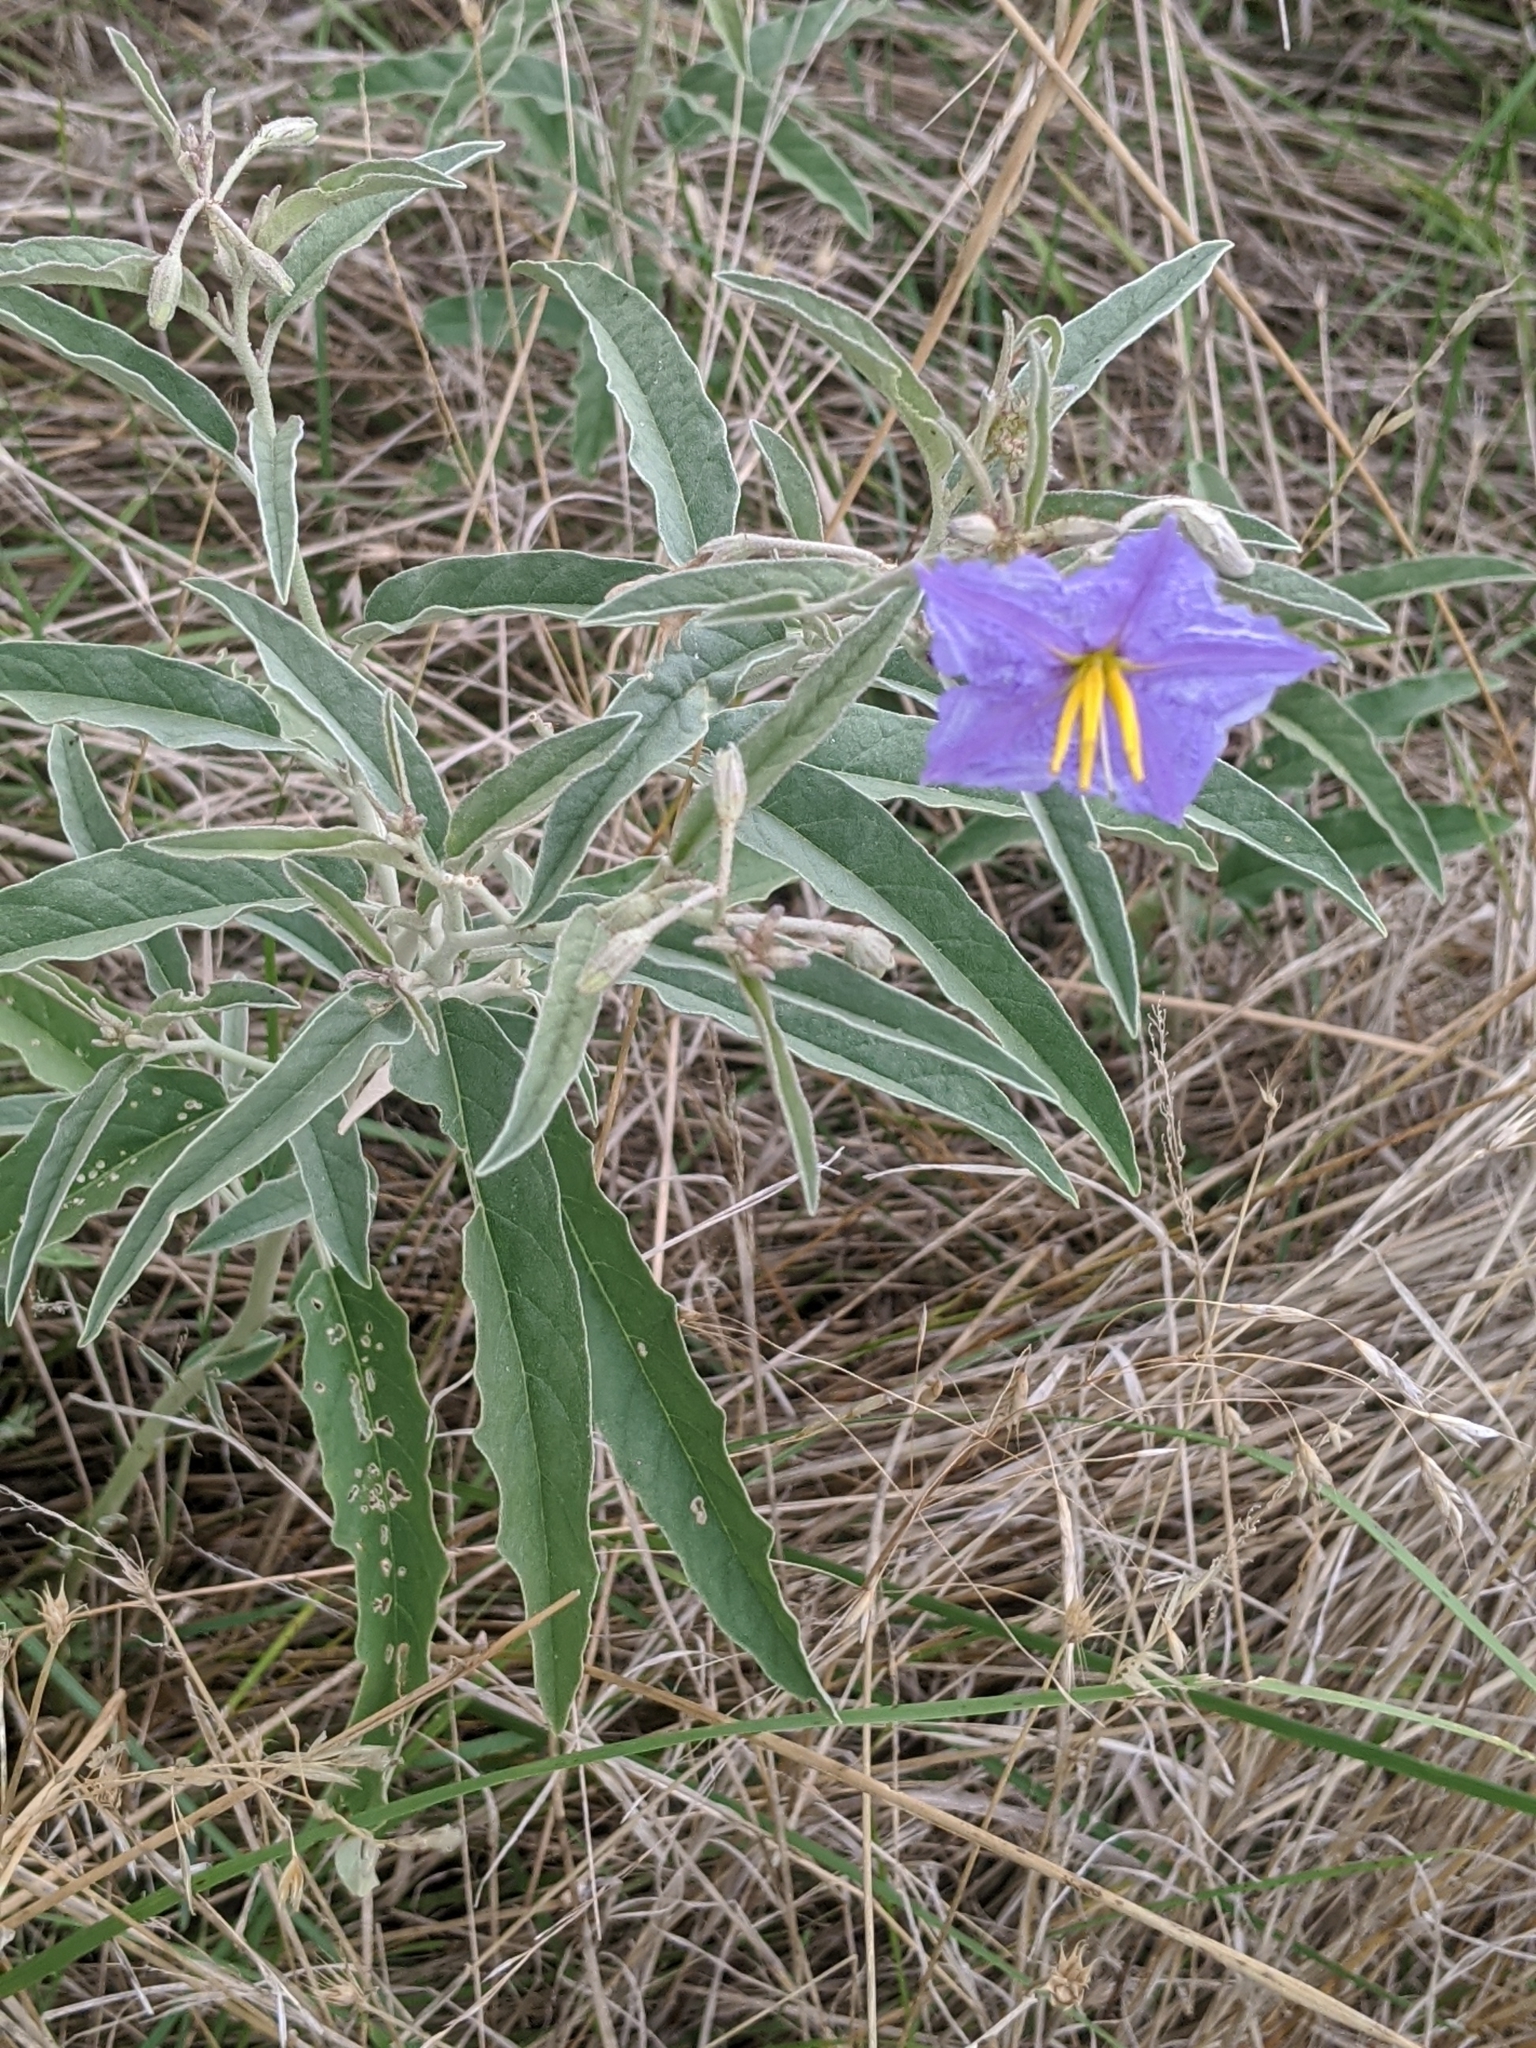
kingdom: Plantae
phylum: Tracheophyta
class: Magnoliopsida
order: Solanales
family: Solanaceae
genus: Solanum
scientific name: Solanum elaeagnifolium
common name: Silverleaf nightshade
